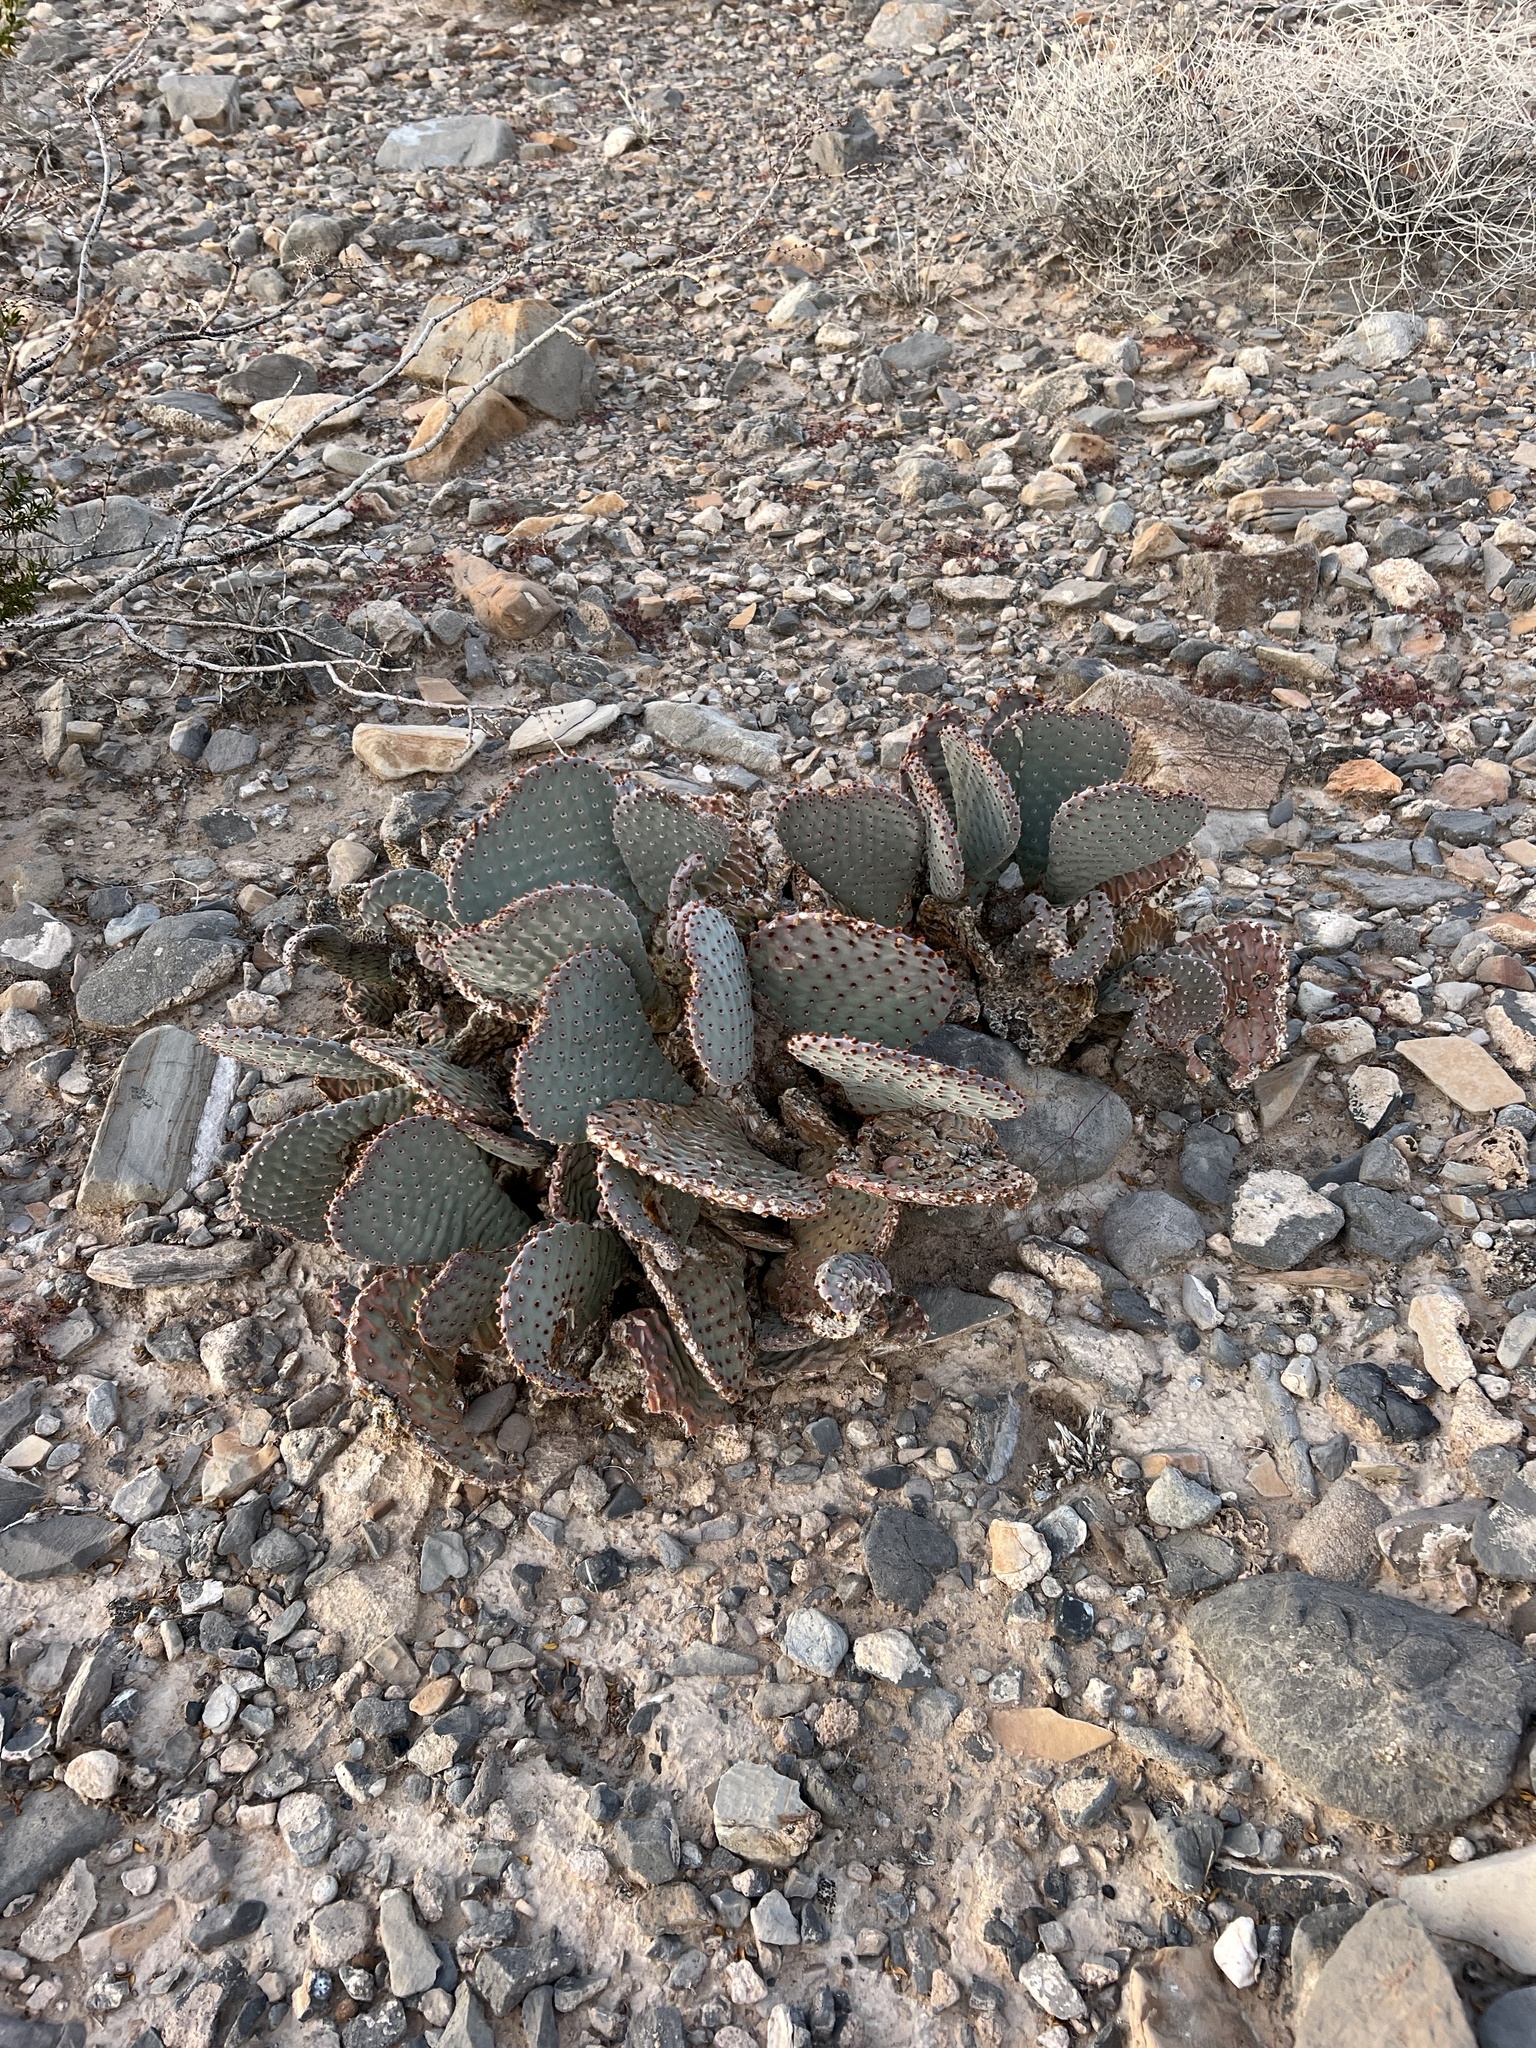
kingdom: Plantae
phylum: Tracheophyta
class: Magnoliopsida
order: Caryophyllales
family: Cactaceae
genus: Opuntia
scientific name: Opuntia basilaris
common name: Beavertail prickly-pear
